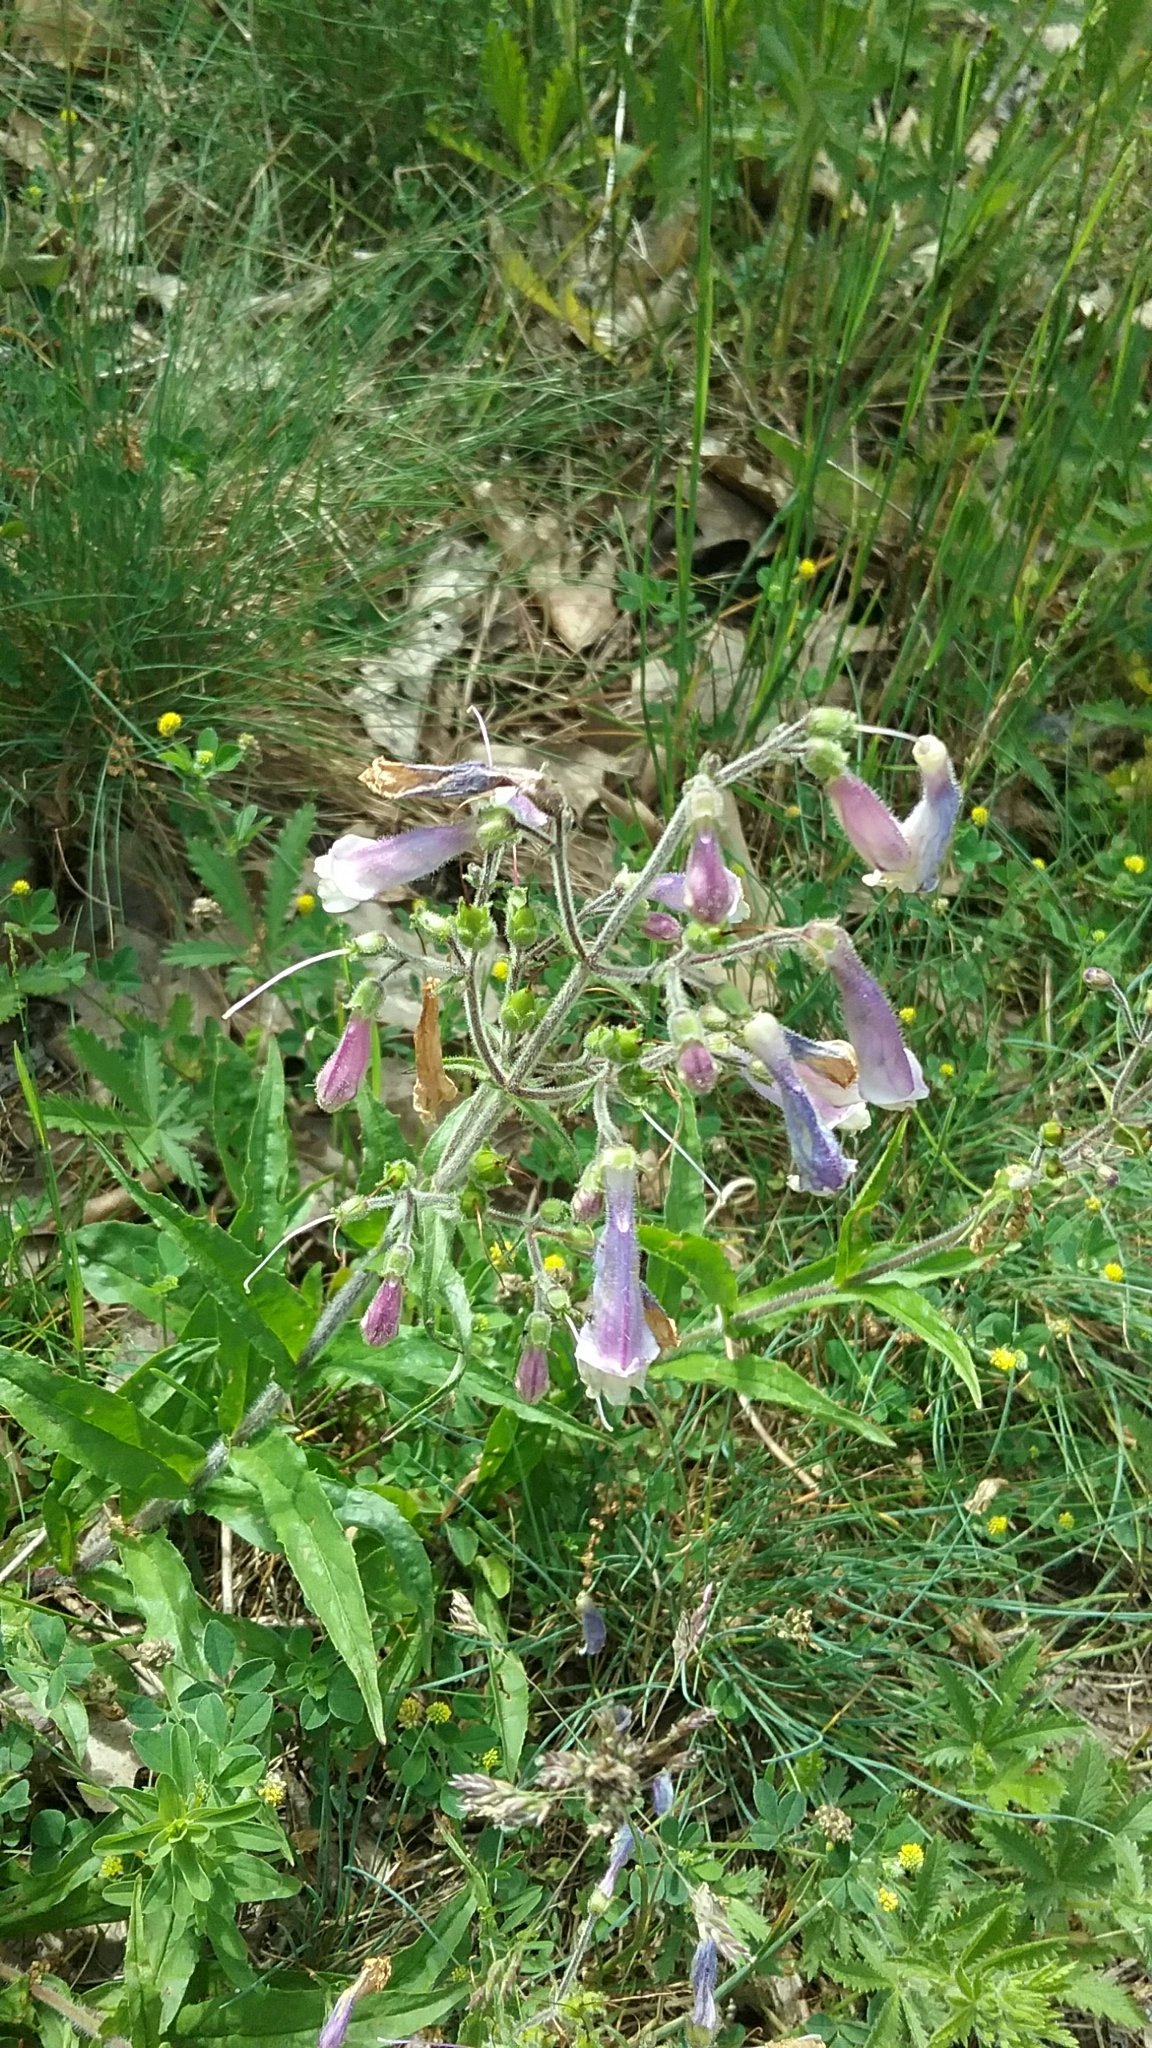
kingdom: Plantae
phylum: Tracheophyta
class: Magnoliopsida
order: Lamiales
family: Plantaginaceae
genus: Penstemon
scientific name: Penstemon hirsutus
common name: Hairy beardtongue
